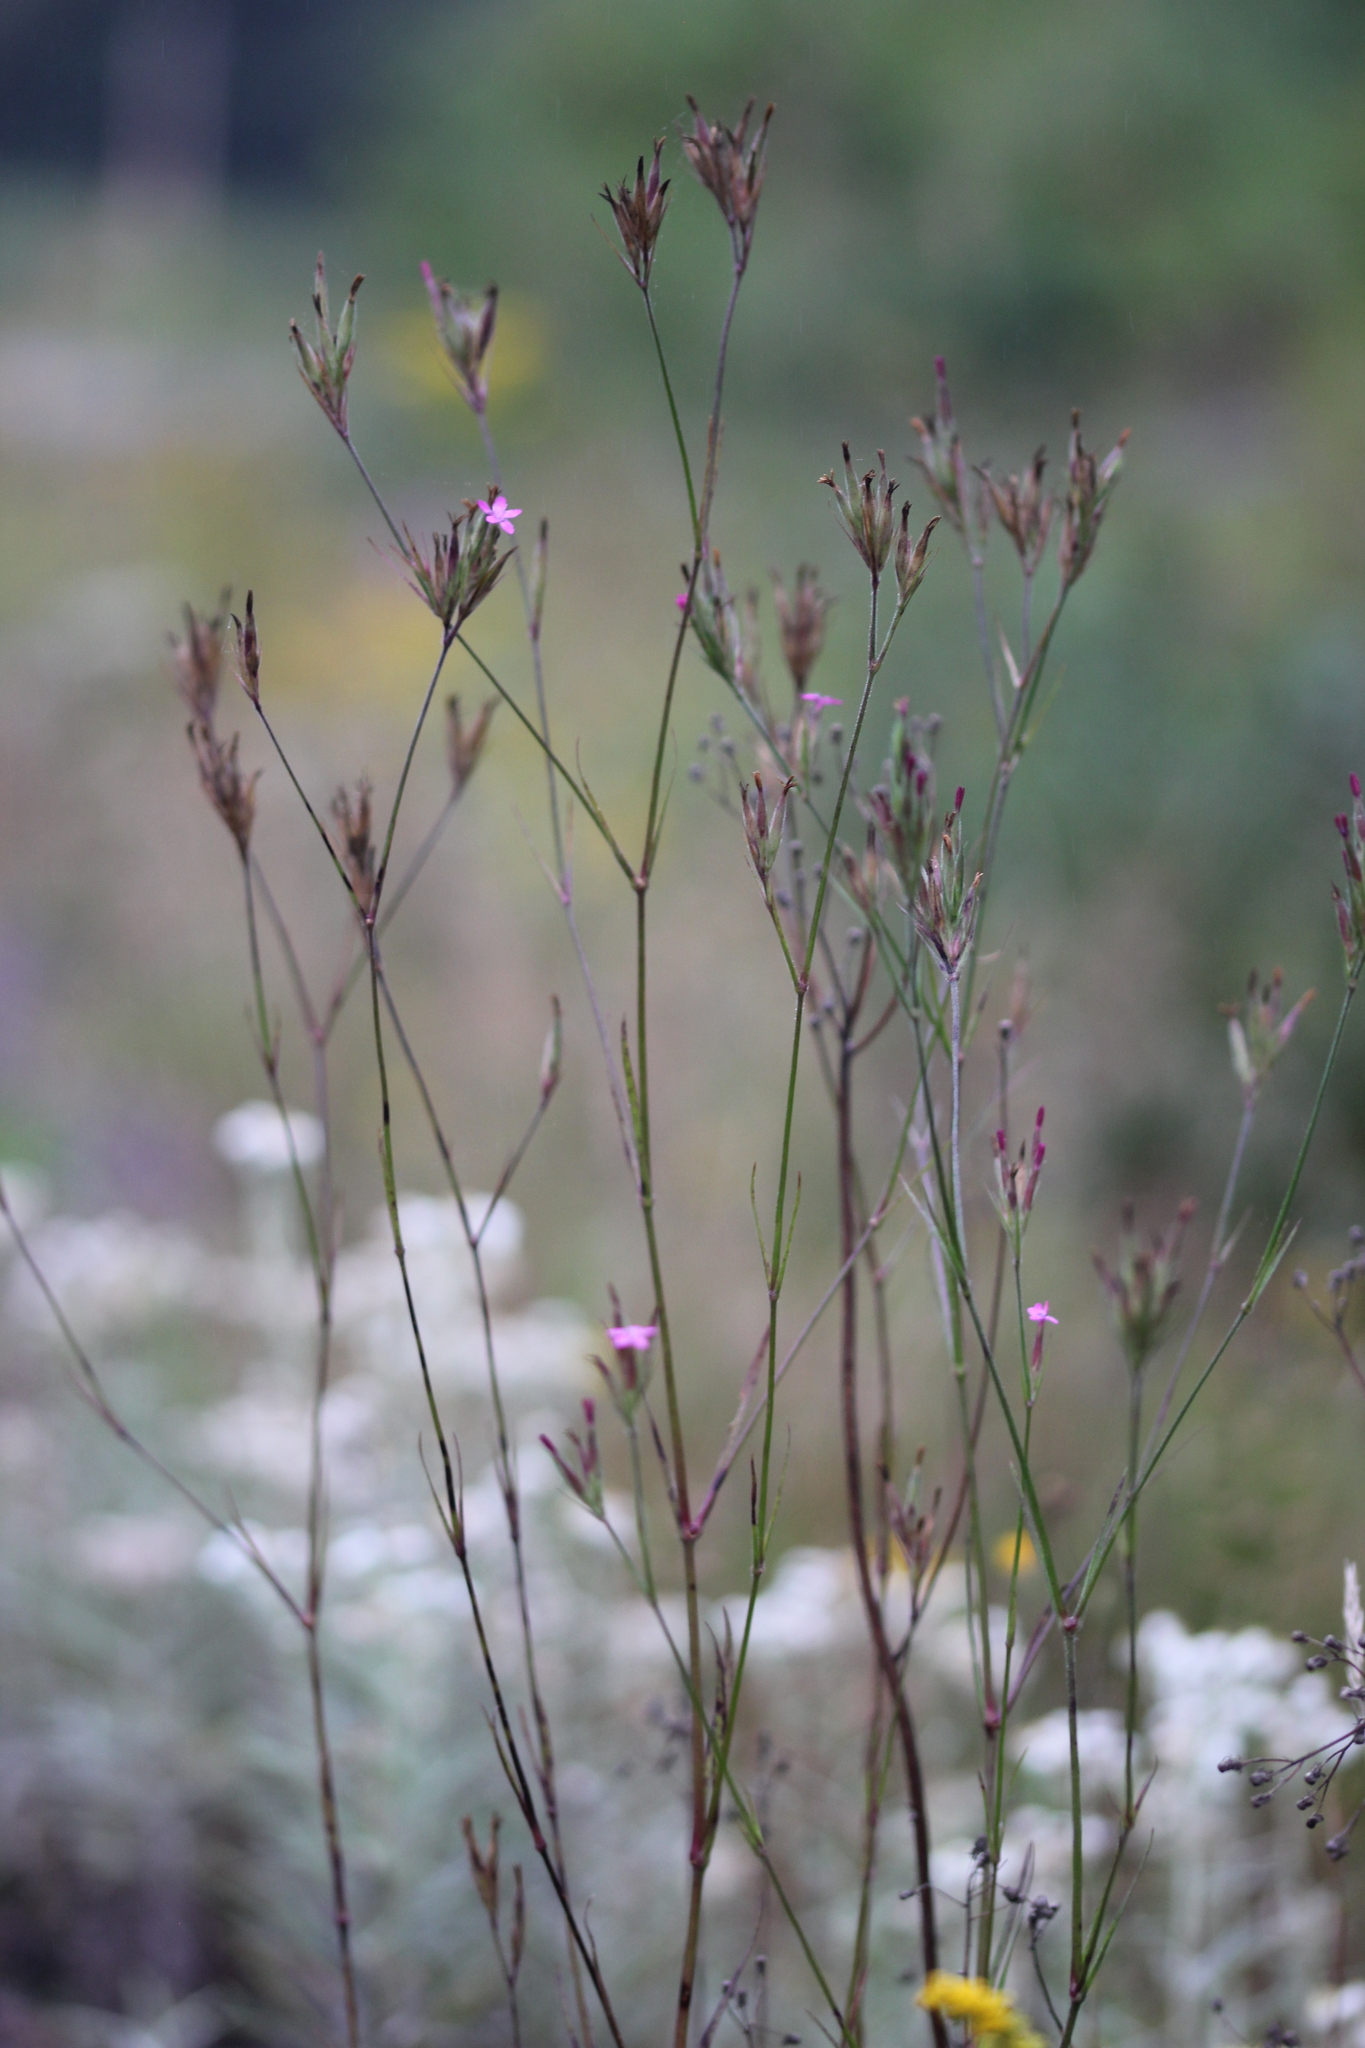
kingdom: Plantae
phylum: Tracheophyta
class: Magnoliopsida
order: Caryophyllales
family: Caryophyllaceae
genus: Dianthus
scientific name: Dianthus armeria
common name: Deptford pink
